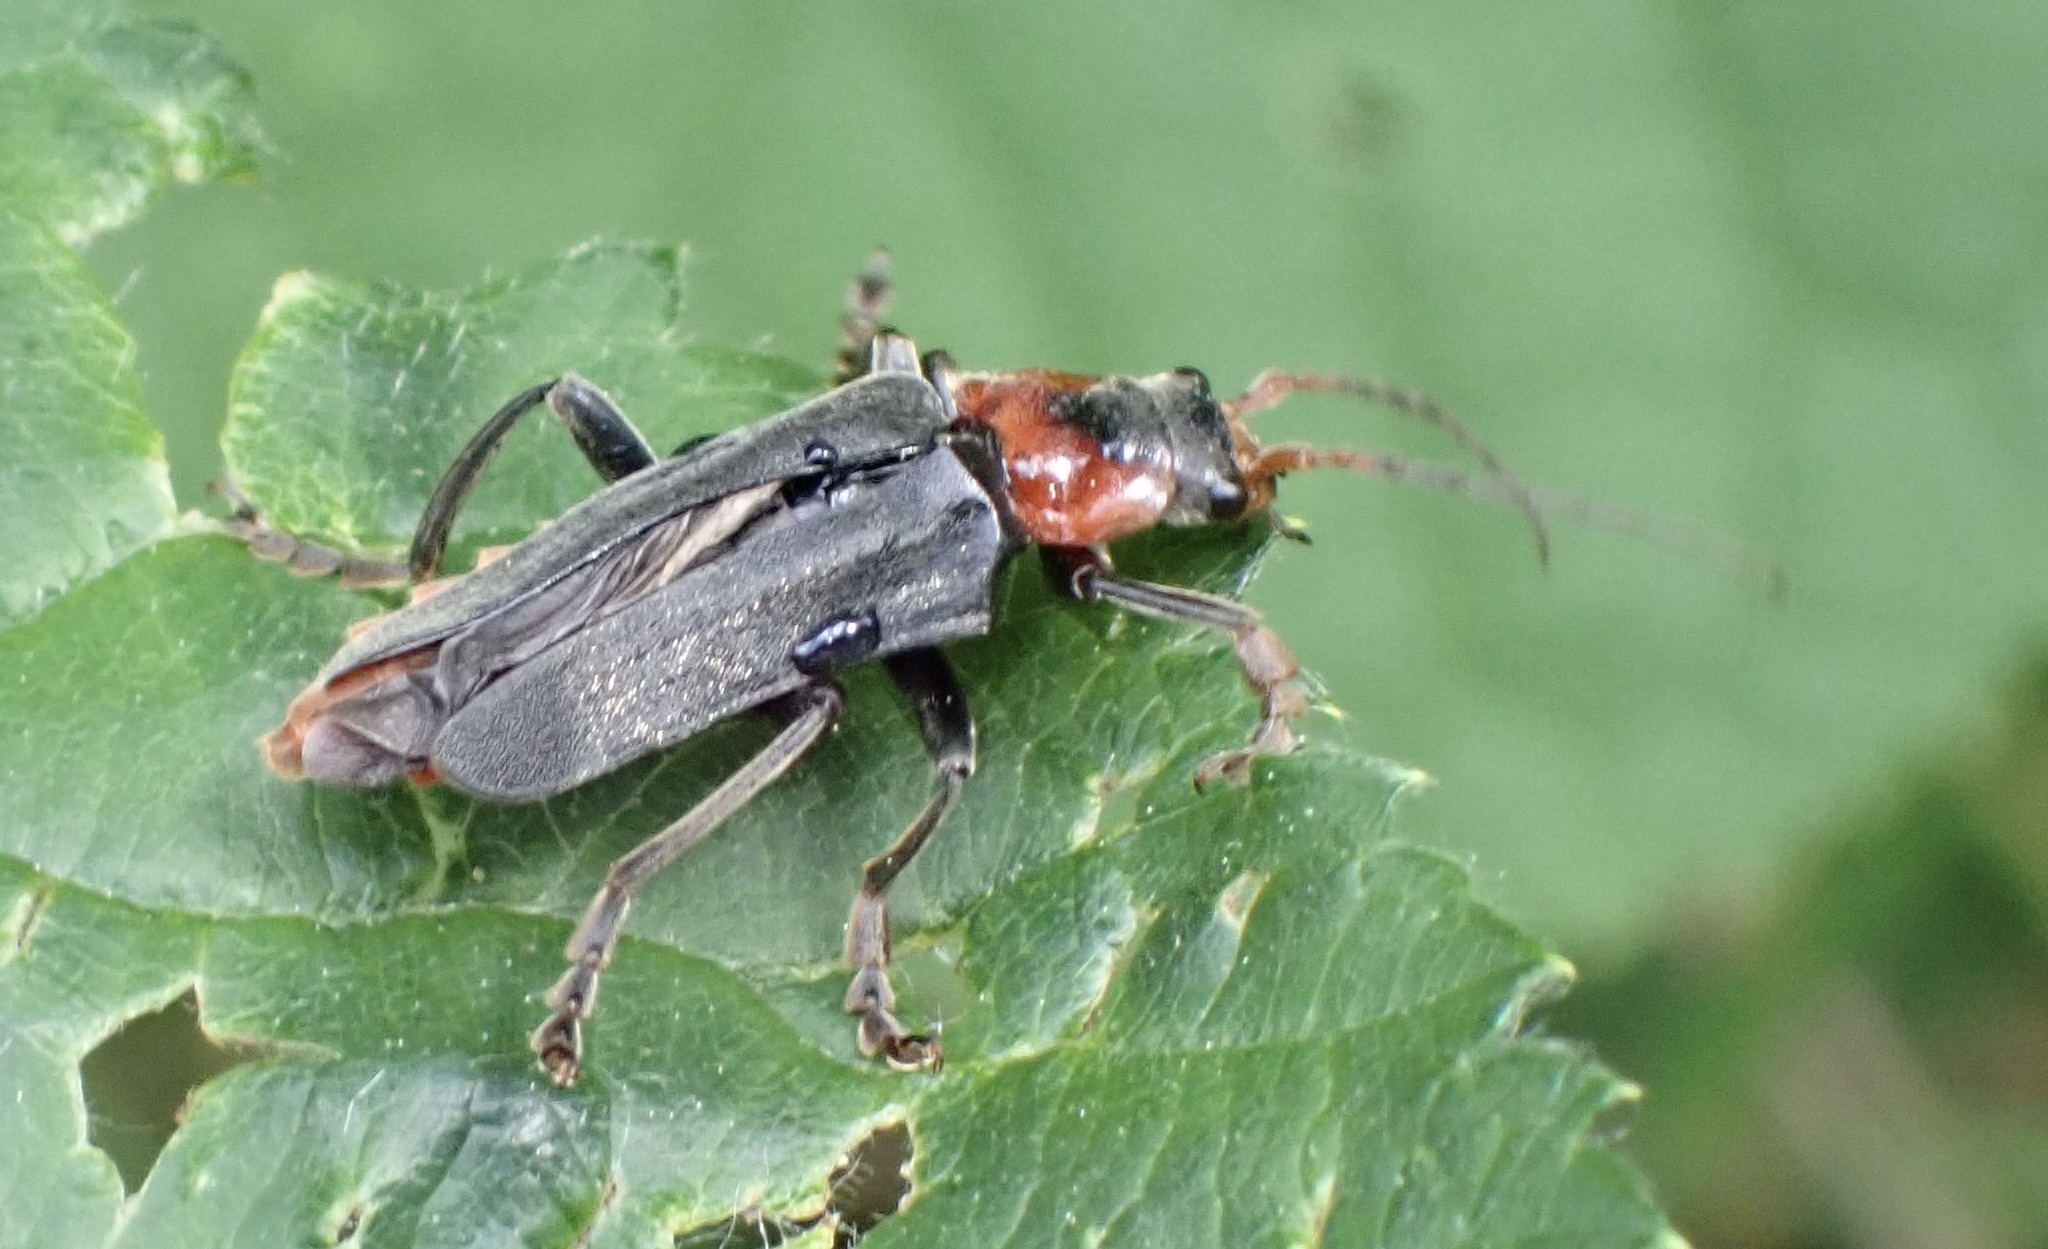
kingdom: Animalia
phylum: Arthropoda
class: Insecta
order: Coleoptera
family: Cantharidae
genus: Cantharis
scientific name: Cantharis fusca
